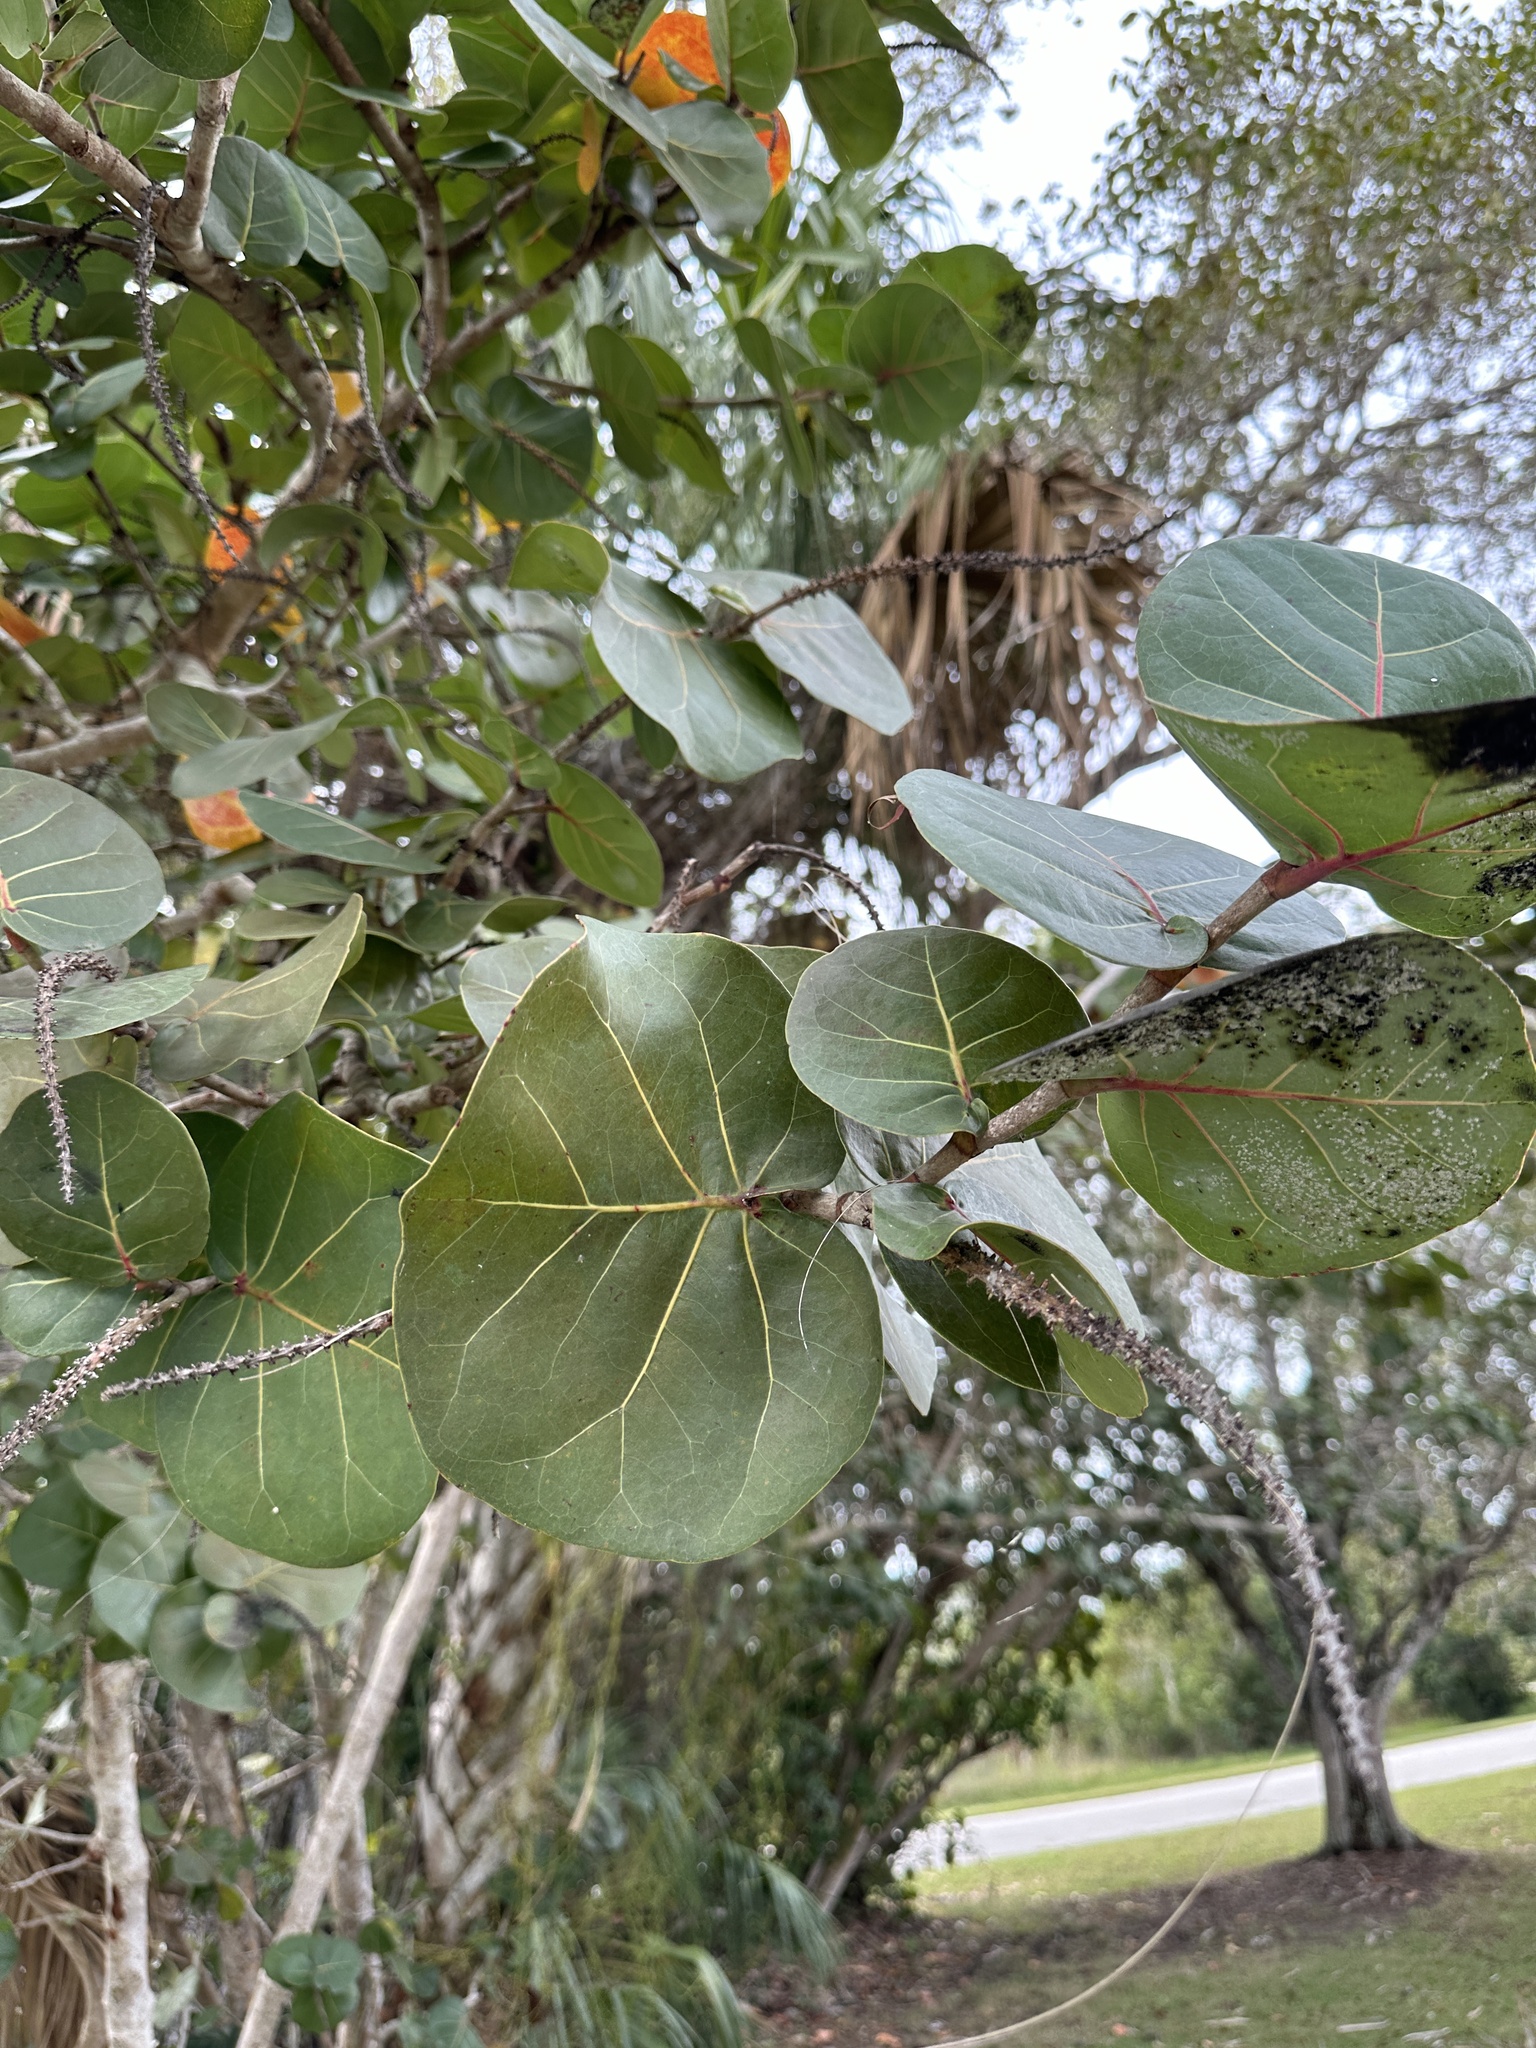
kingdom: Plantae
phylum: Tracheophyta
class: Magnoliopsida
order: Caryophyllales
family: Polygonaceae
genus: Coccoloba
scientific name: Coccoloba uvifera
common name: Seagrape
